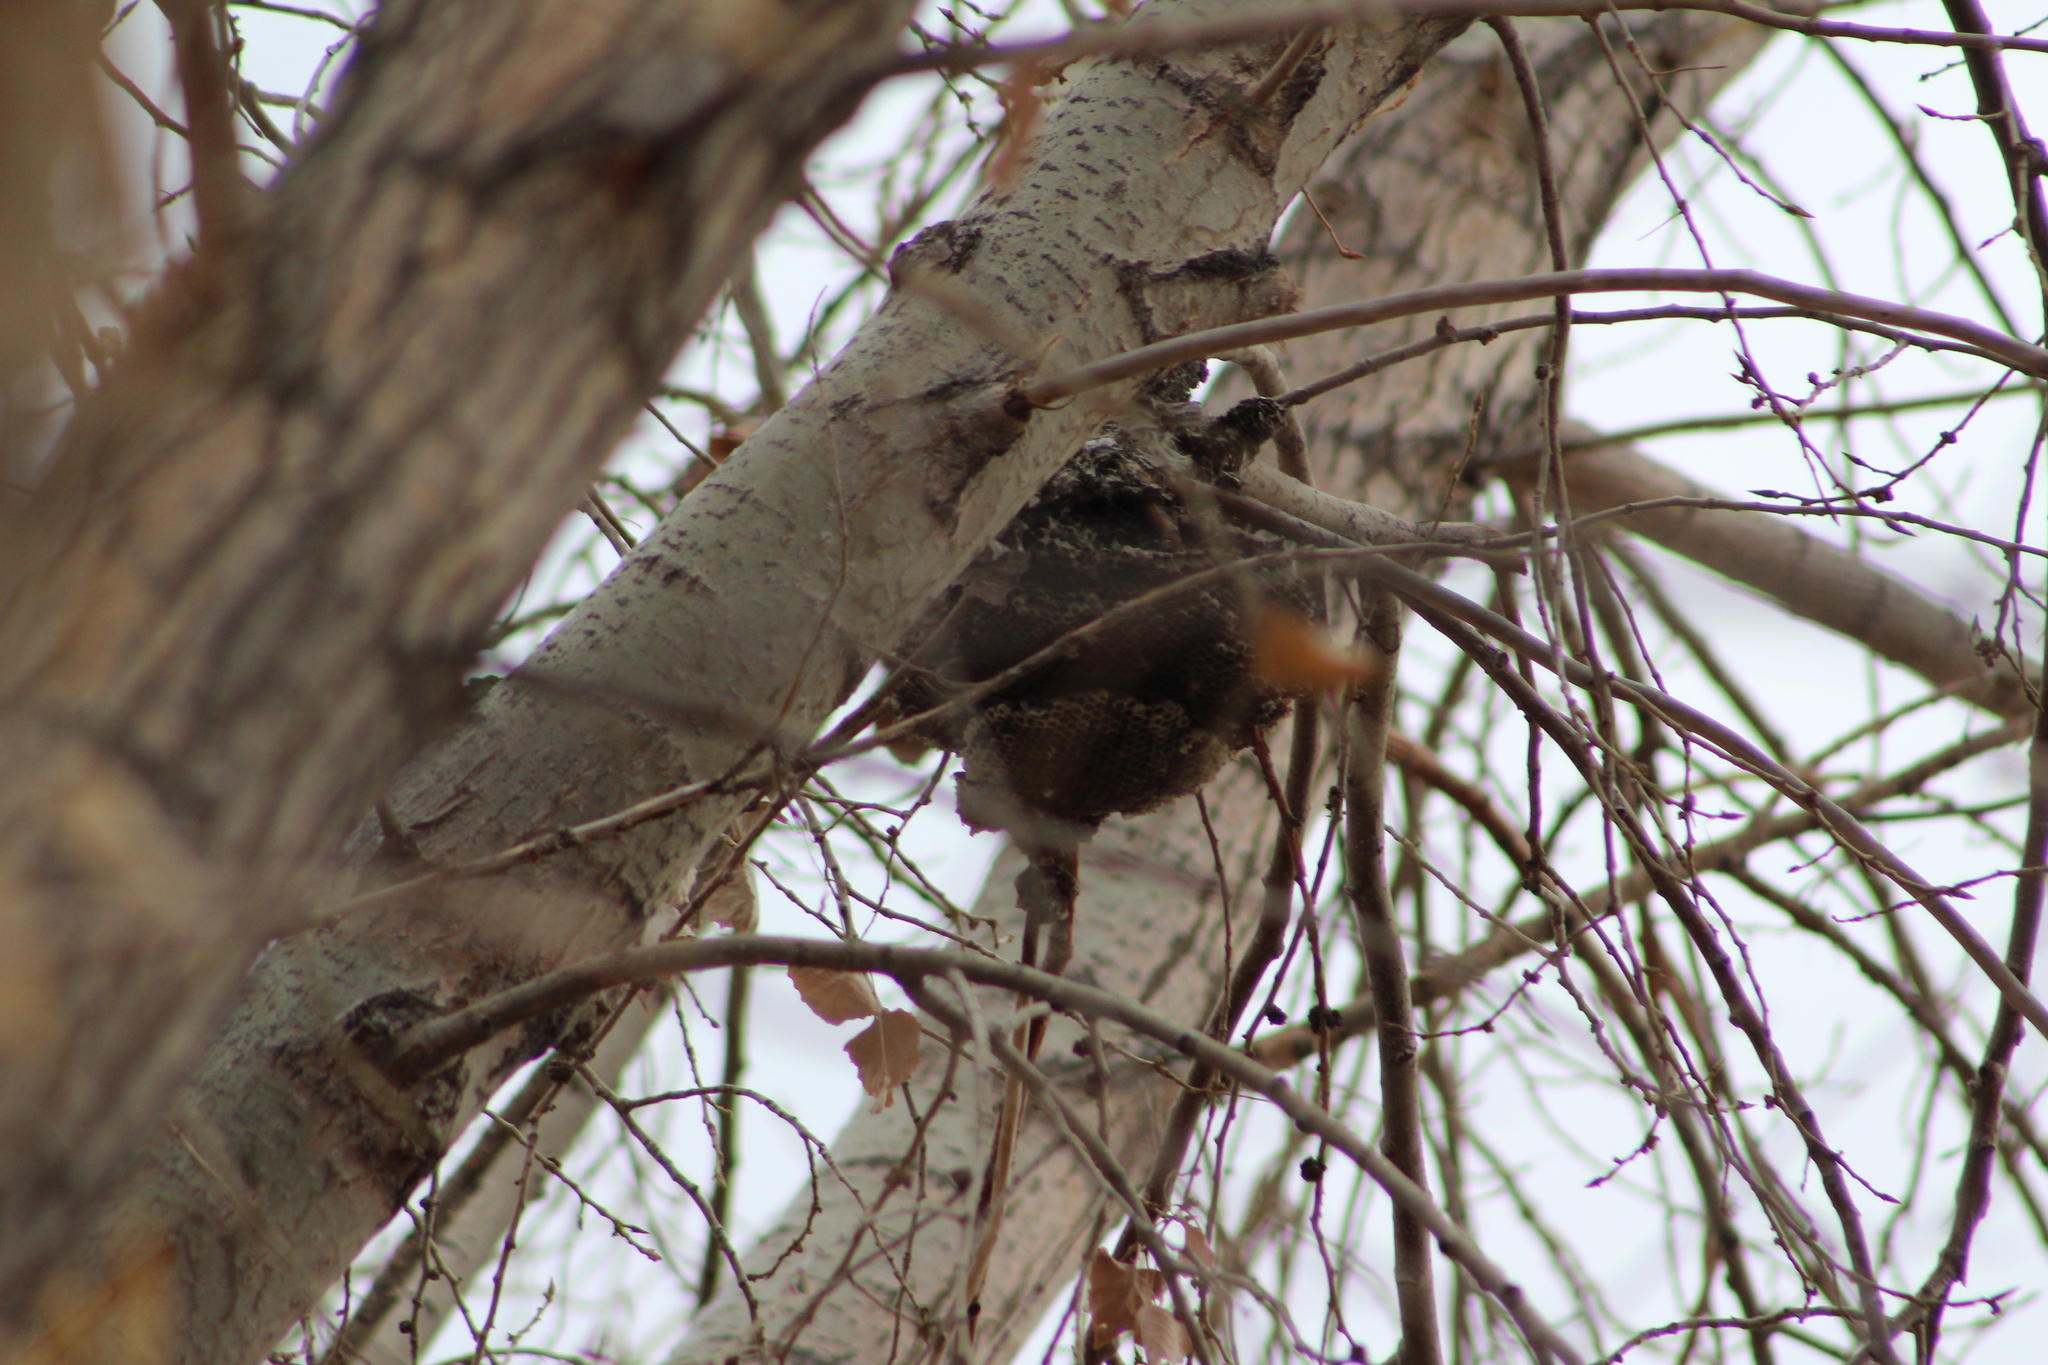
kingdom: Animalia
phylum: Arthropoda
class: Insecta
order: Hymenoptera
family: Vespidae
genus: Dolichovespula
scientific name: Dolichovespula
